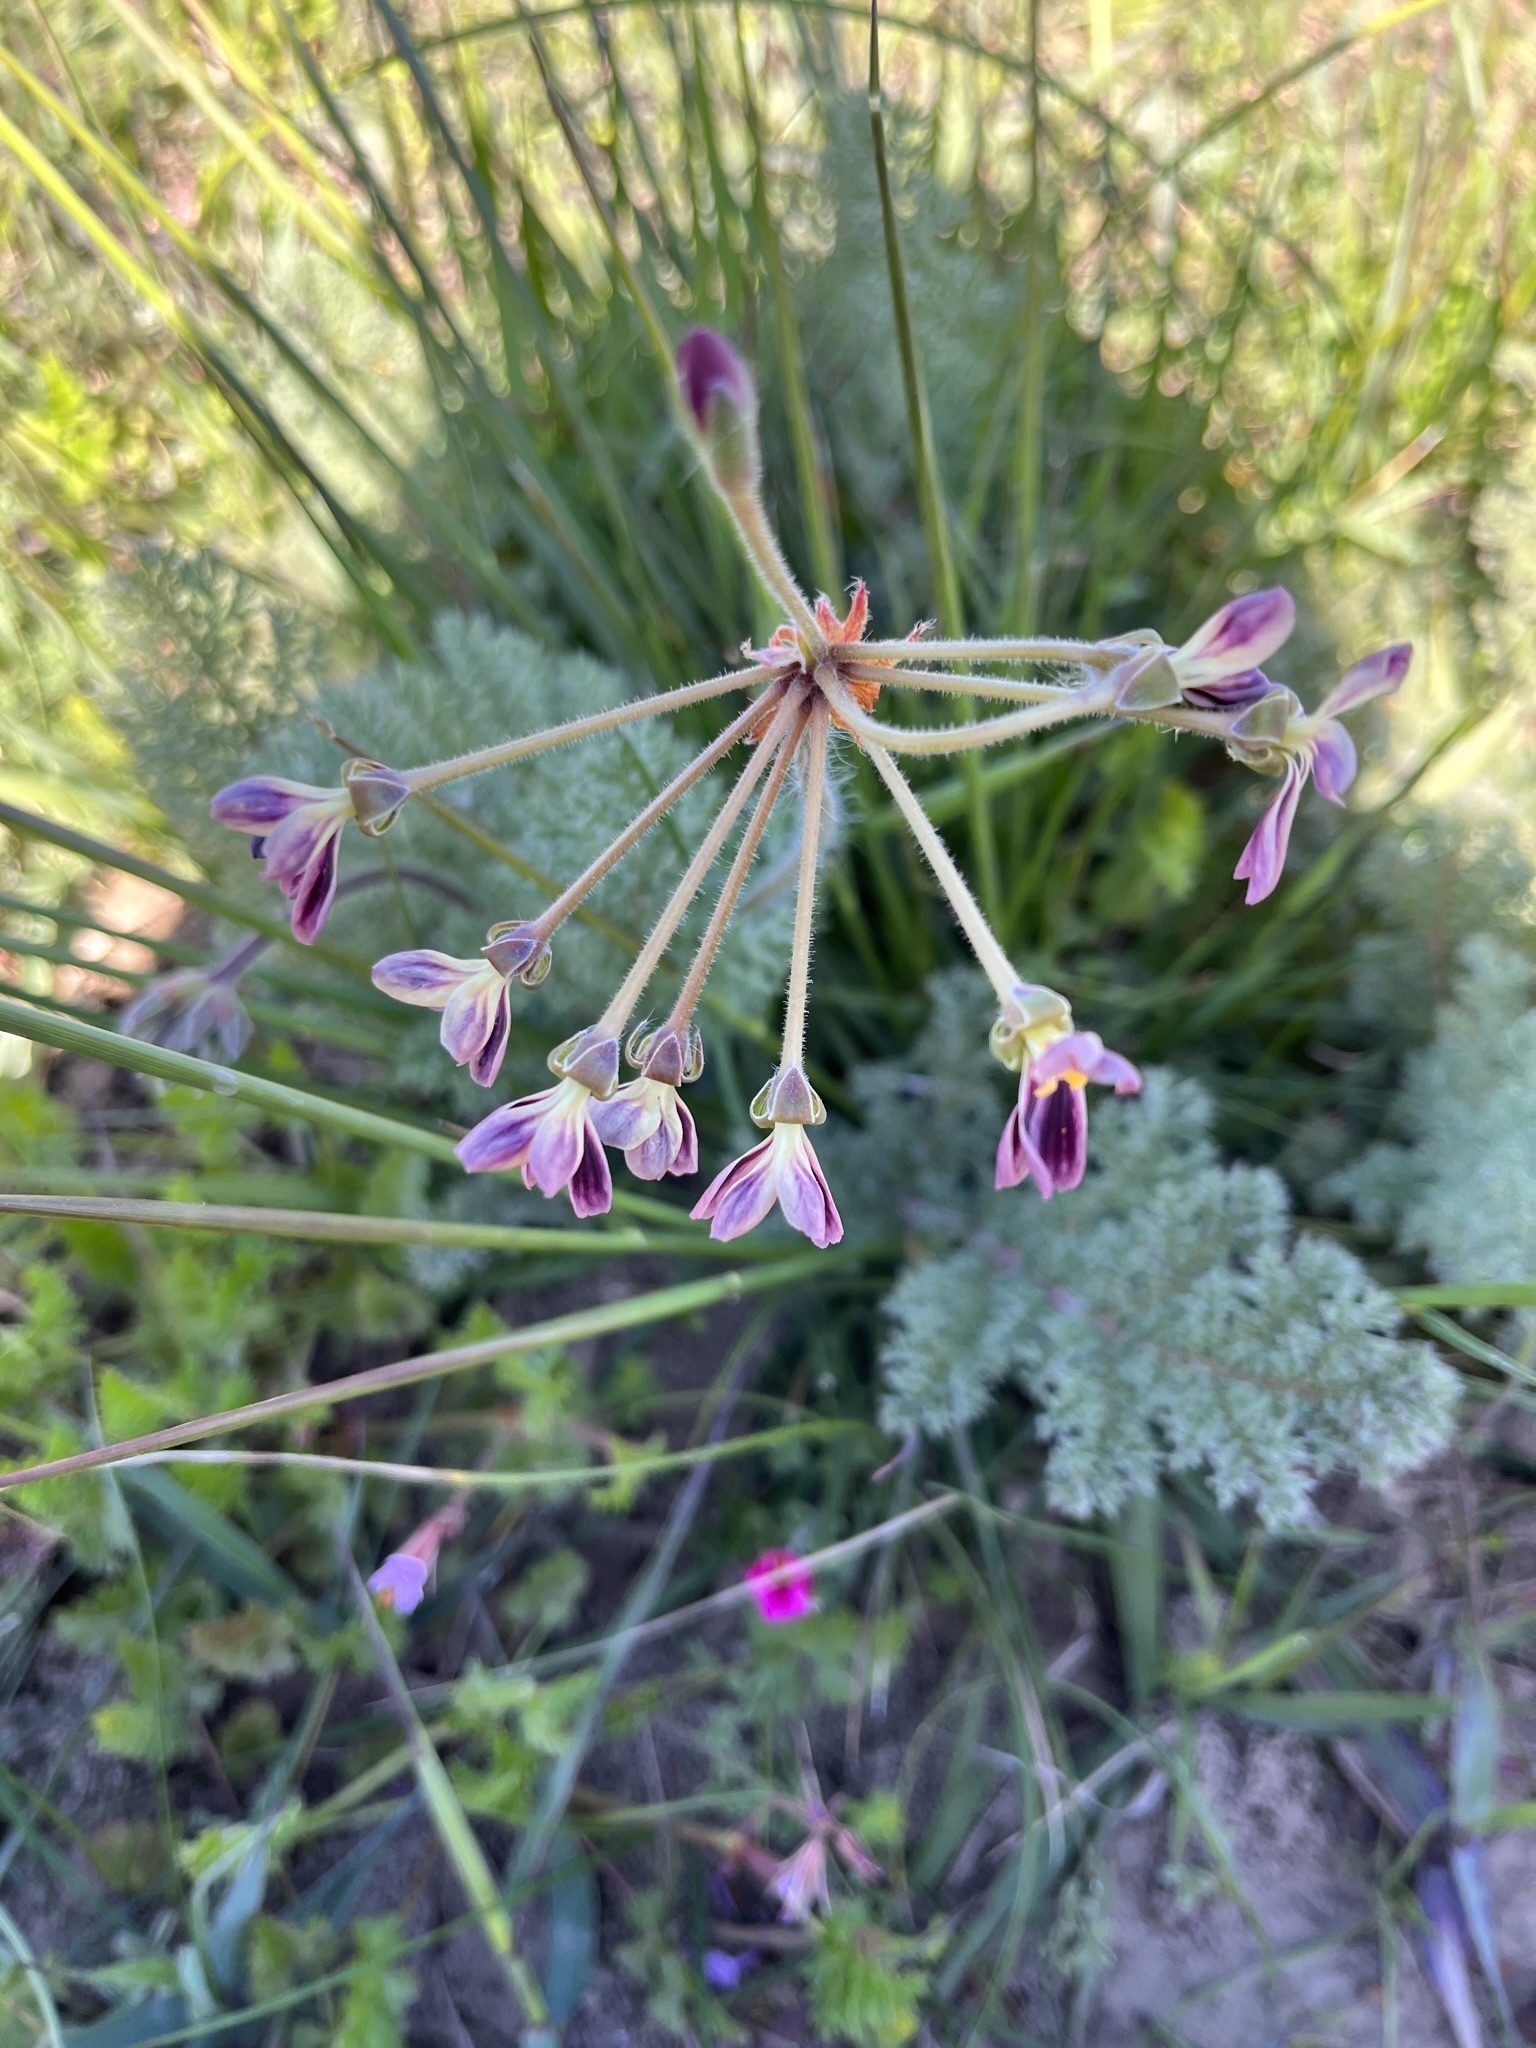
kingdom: Plantae
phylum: Tracheophyta
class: Magnoliopsida
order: Geraniales
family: Geraniaceae
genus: Pelargonium
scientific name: Pelargonium triste
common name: Night-scent pelargonium
